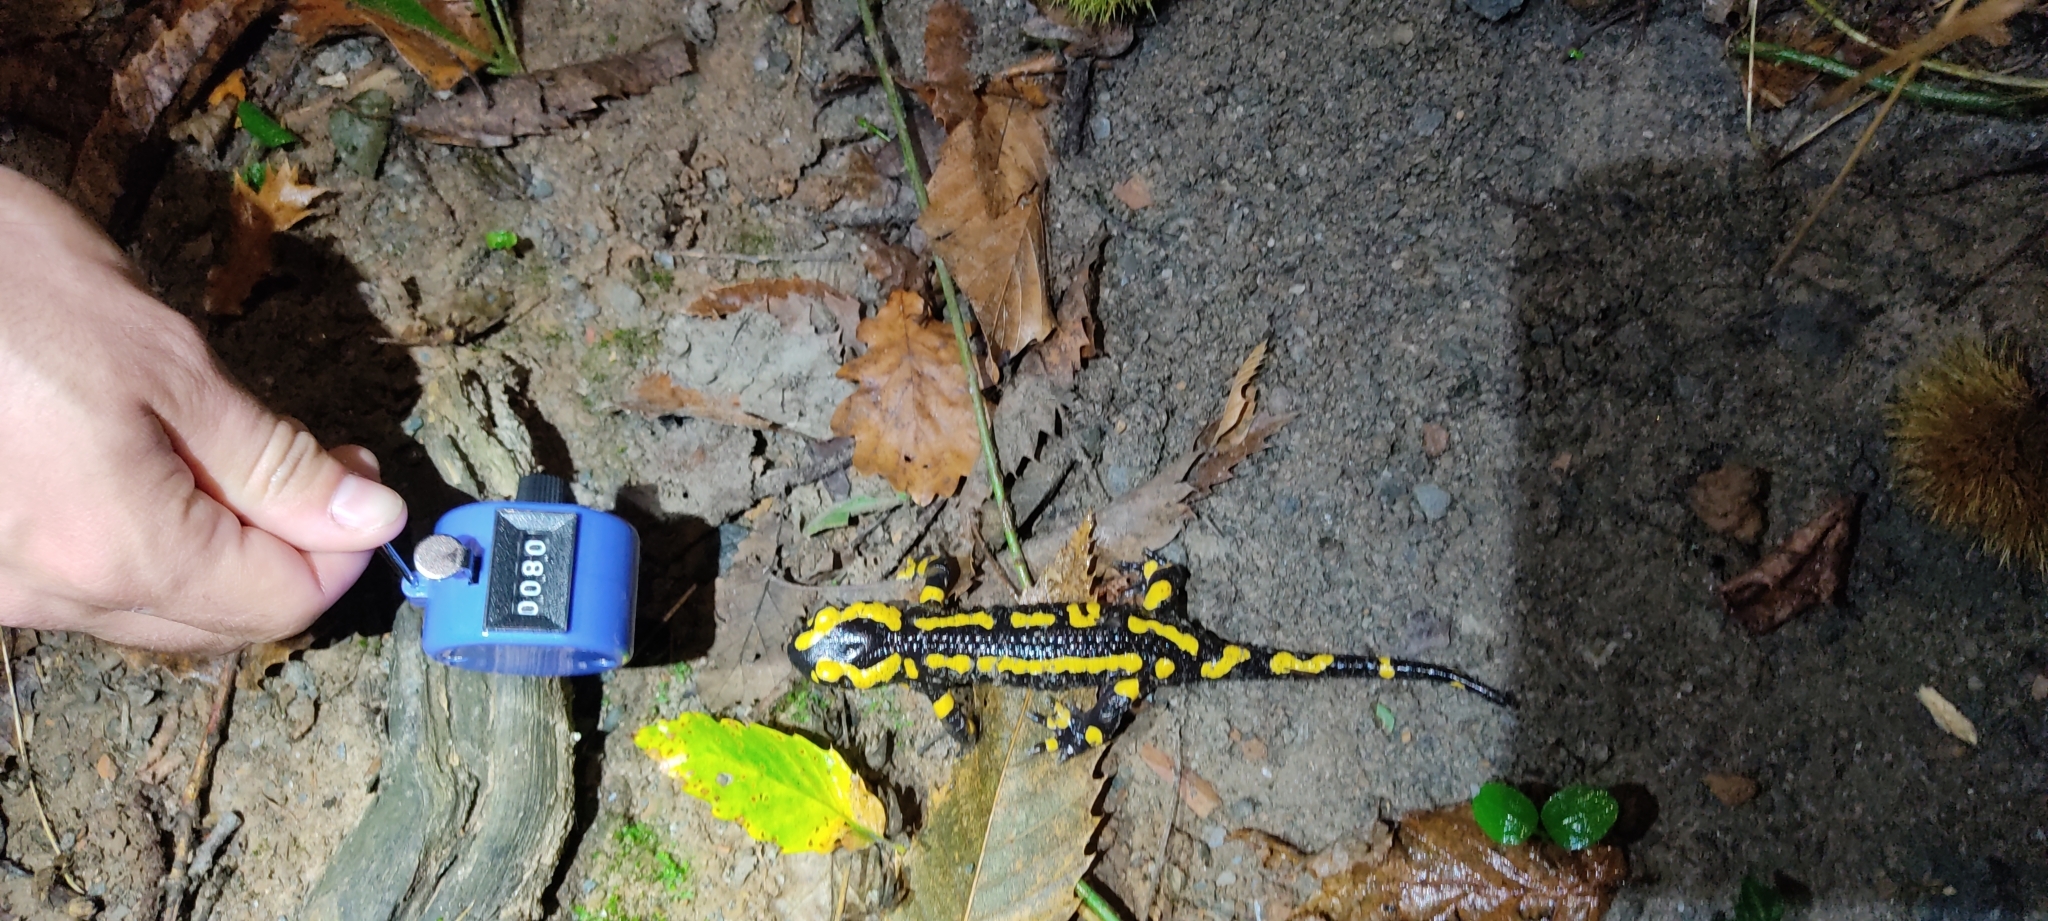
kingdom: Animalia
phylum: Chordata
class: Amphibia
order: Caudata
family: Salamandridae
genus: Salamandra
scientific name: Salamandra salamandra
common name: Fire salamander
